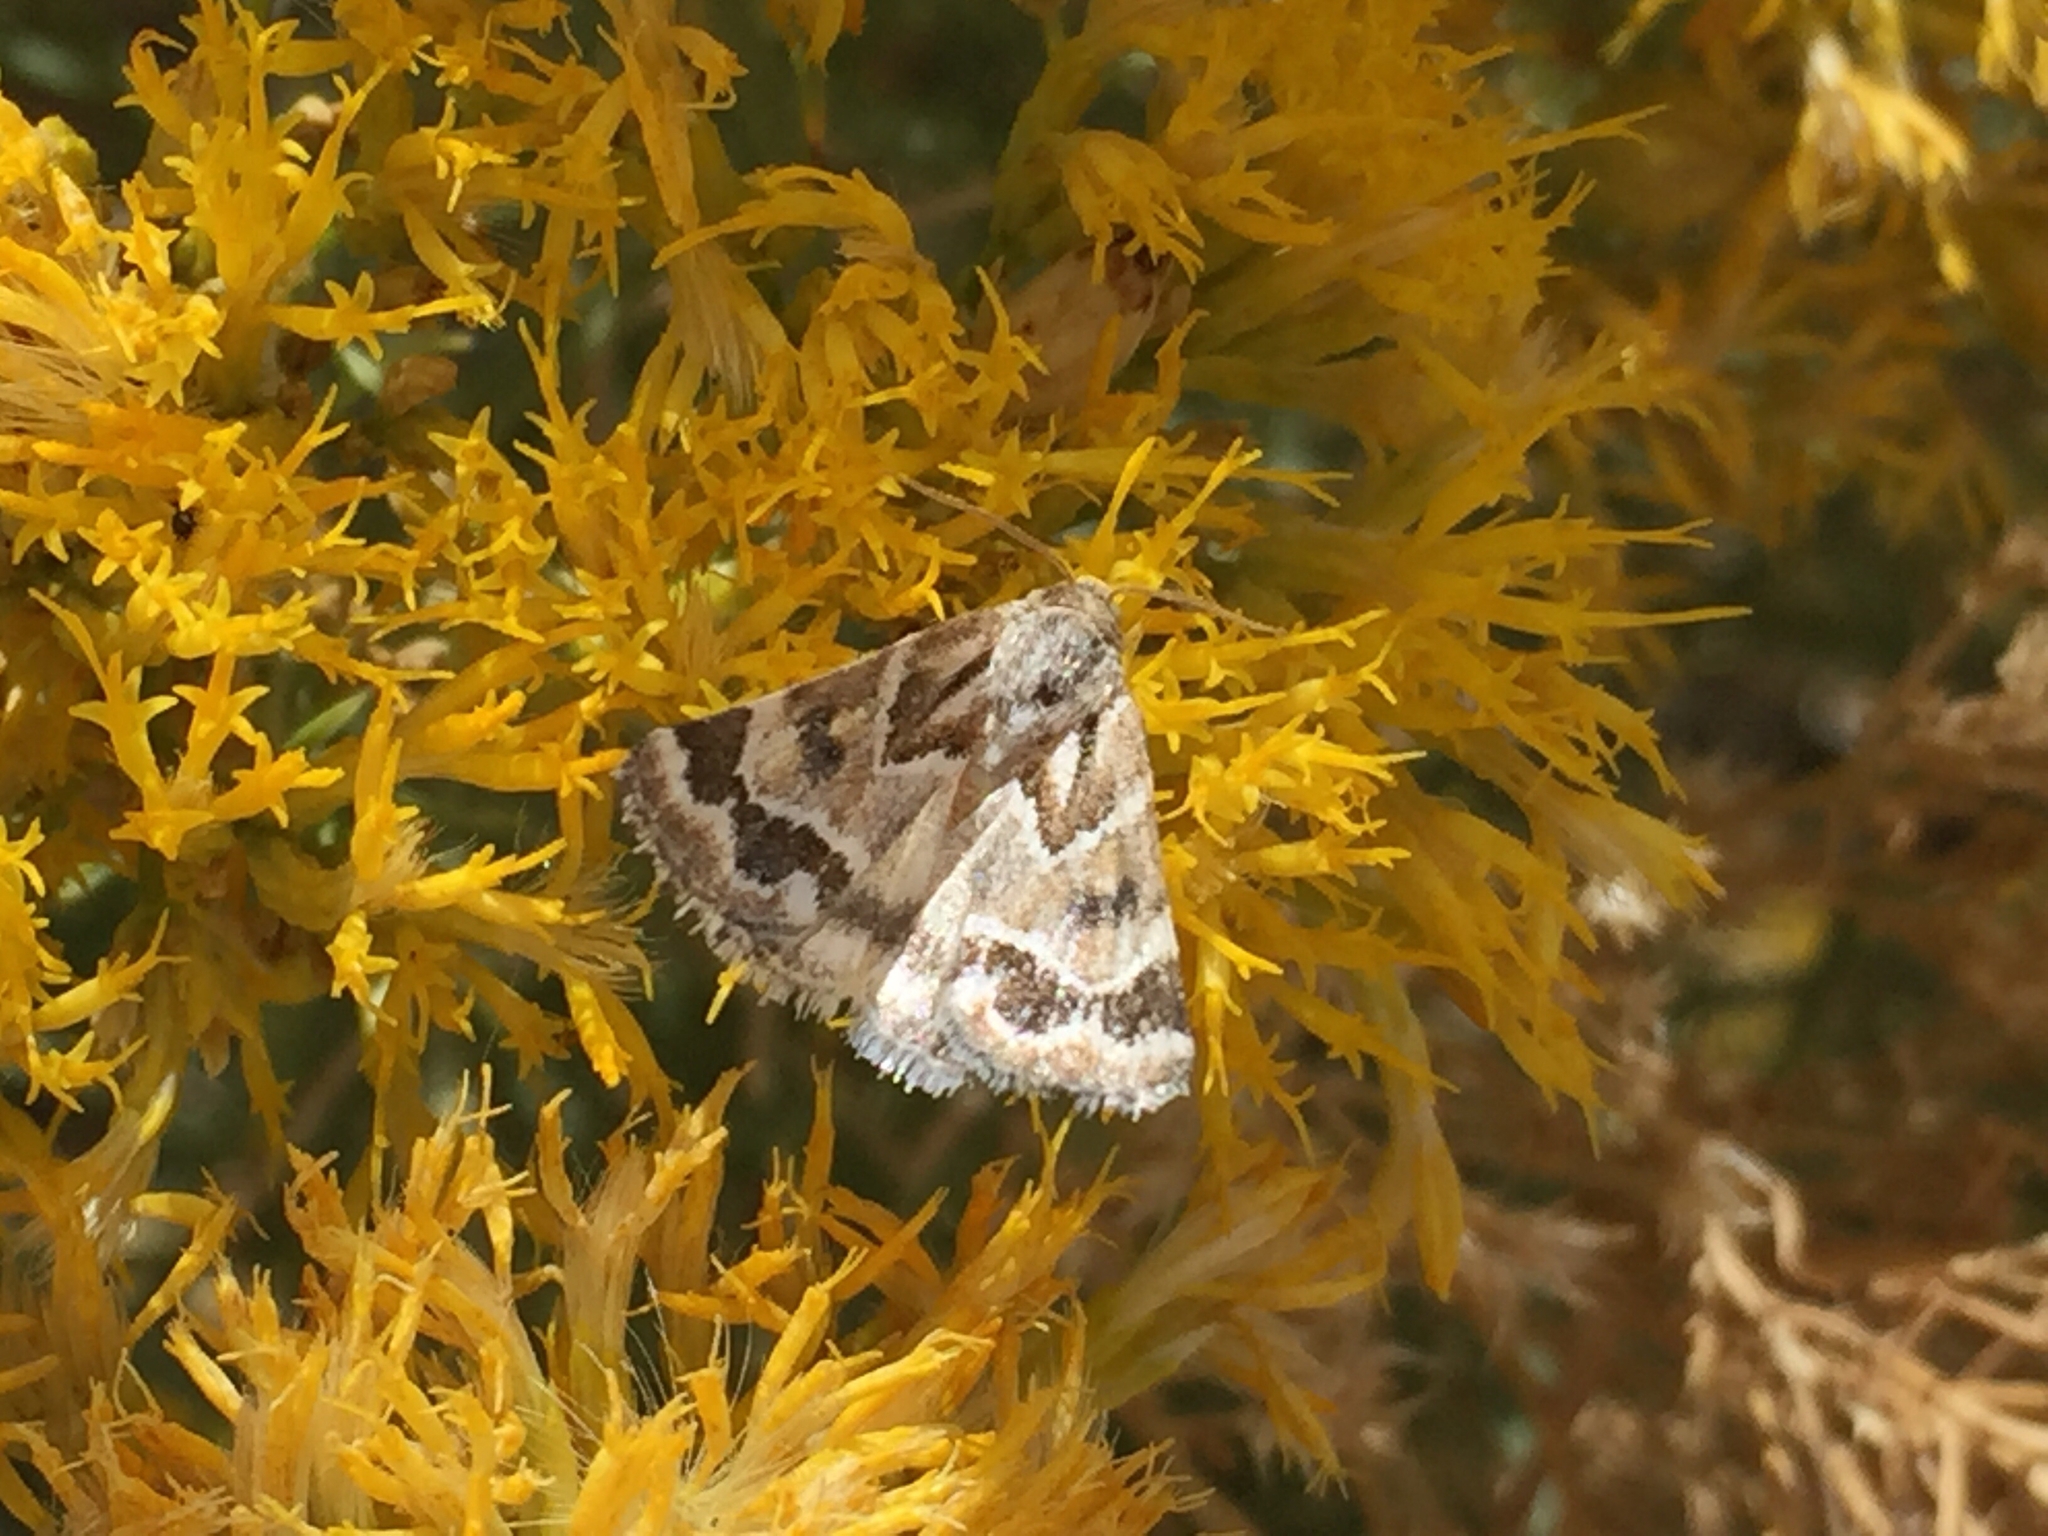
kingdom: Animalia
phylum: Arthropoda
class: Insecta
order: Lepidoptera
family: Noctuidae
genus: Schinia
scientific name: Schinia acutilinea
